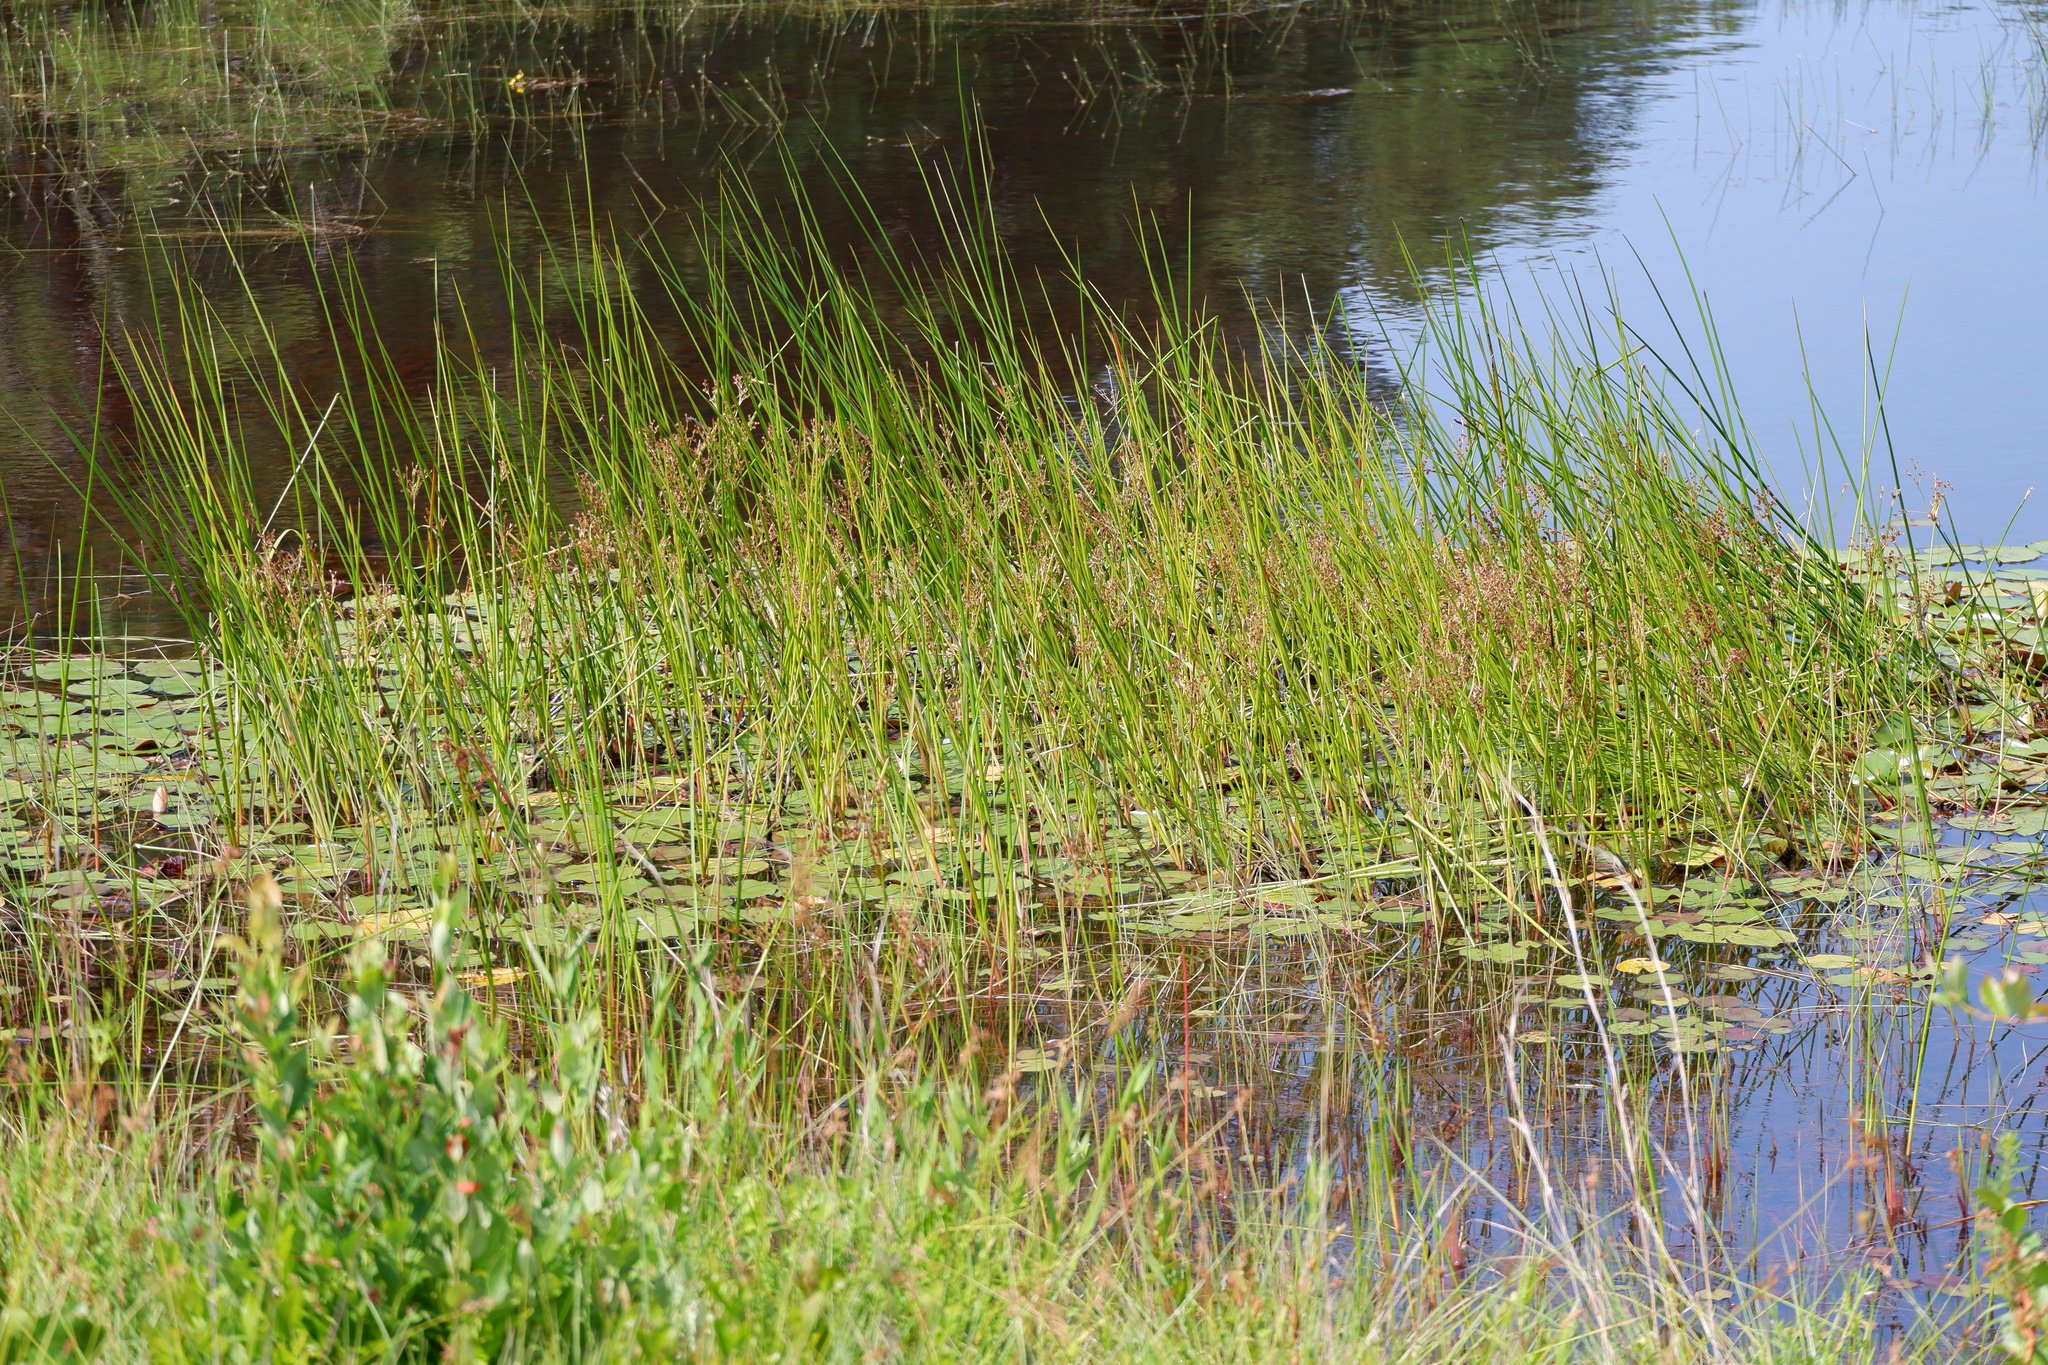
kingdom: Plantae
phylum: Tracheophyta
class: Liliopsida
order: Poales
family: Juncaceae
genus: Juncus
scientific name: Juncus militaris
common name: Bayonet rush
